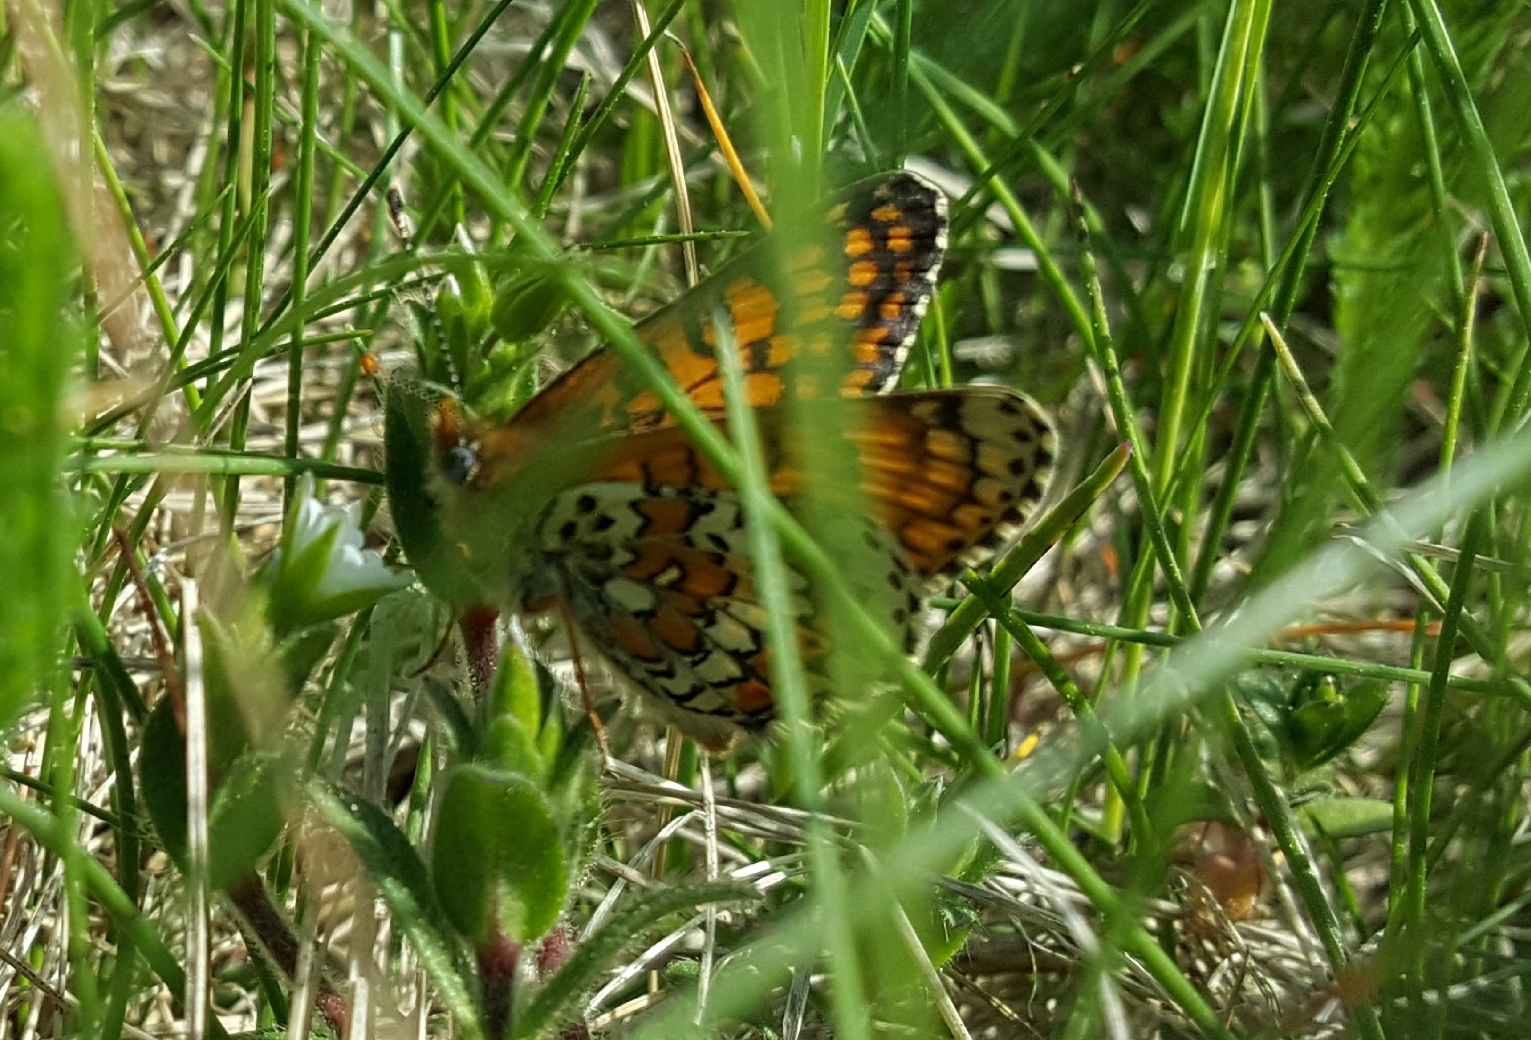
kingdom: Animalia
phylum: Arthropoda
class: Insecta
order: Lepidoptera
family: Nymphalidae
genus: Melitaea
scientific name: Melitaea cinxia
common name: Glanville fritillary
